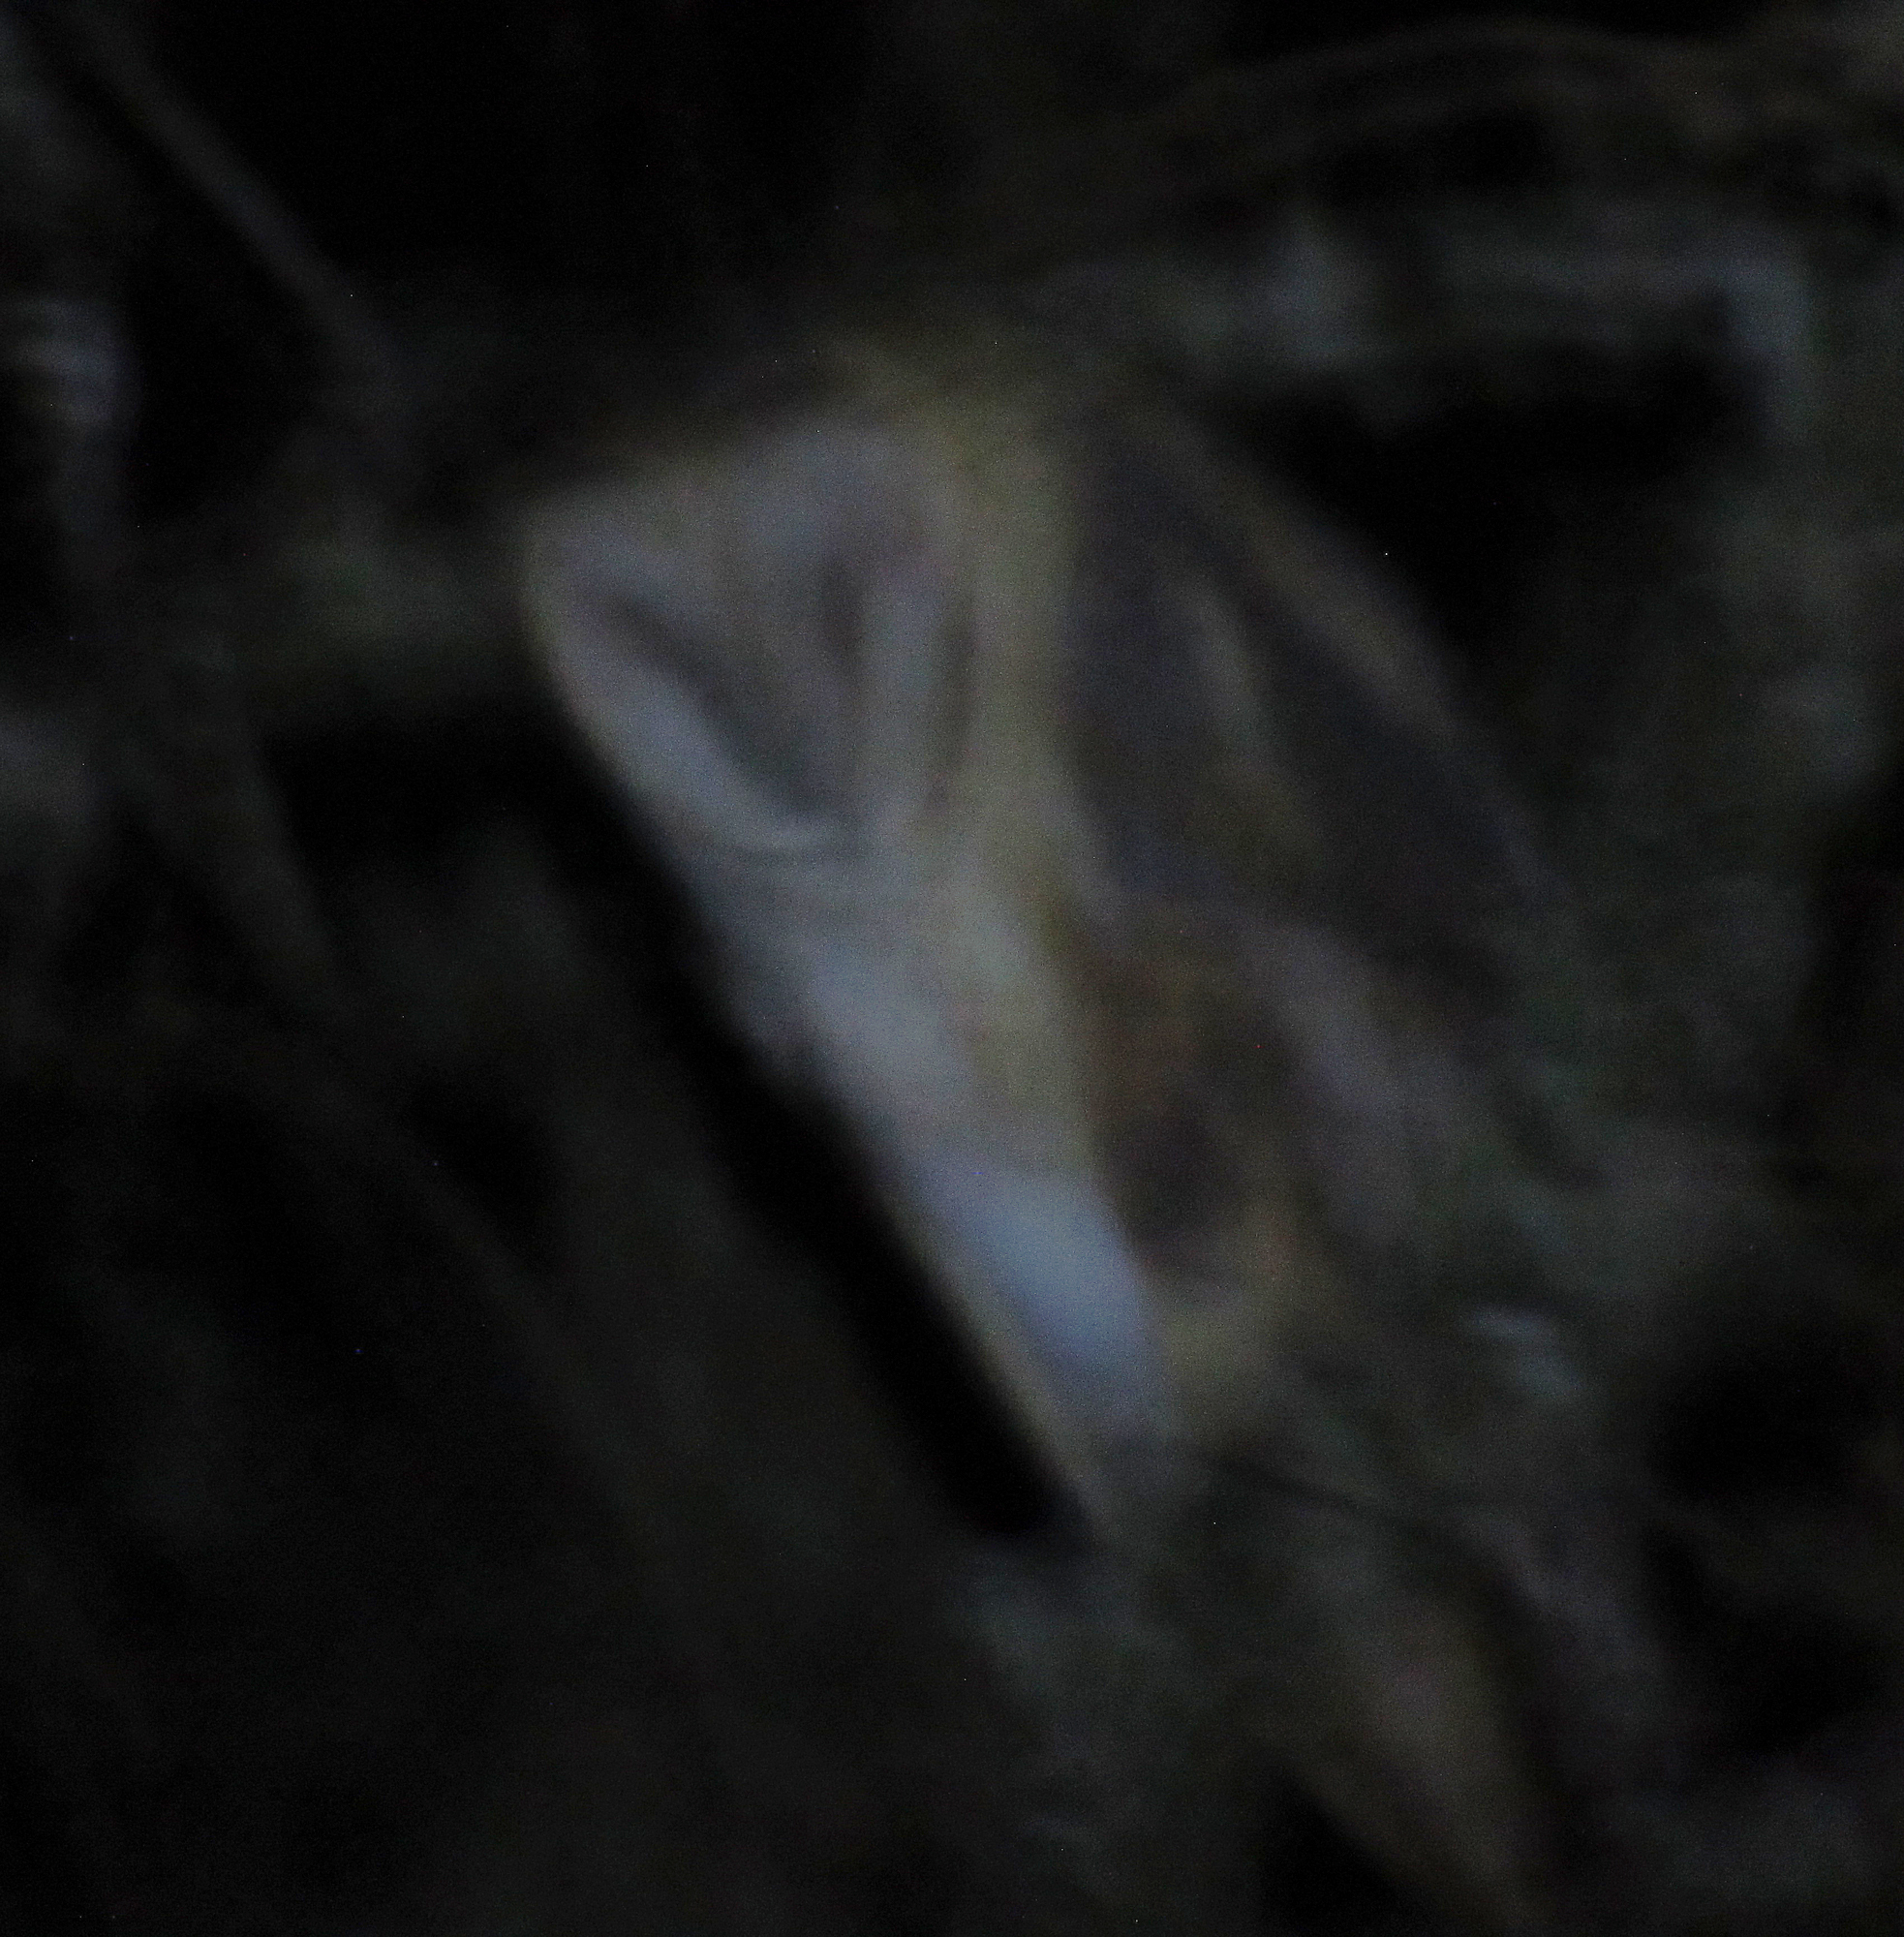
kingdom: Animalia
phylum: Chordata
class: Aves
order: Strigiformes
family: Tytonidae
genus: Tyto
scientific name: Tyto alba
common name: Barn owl
